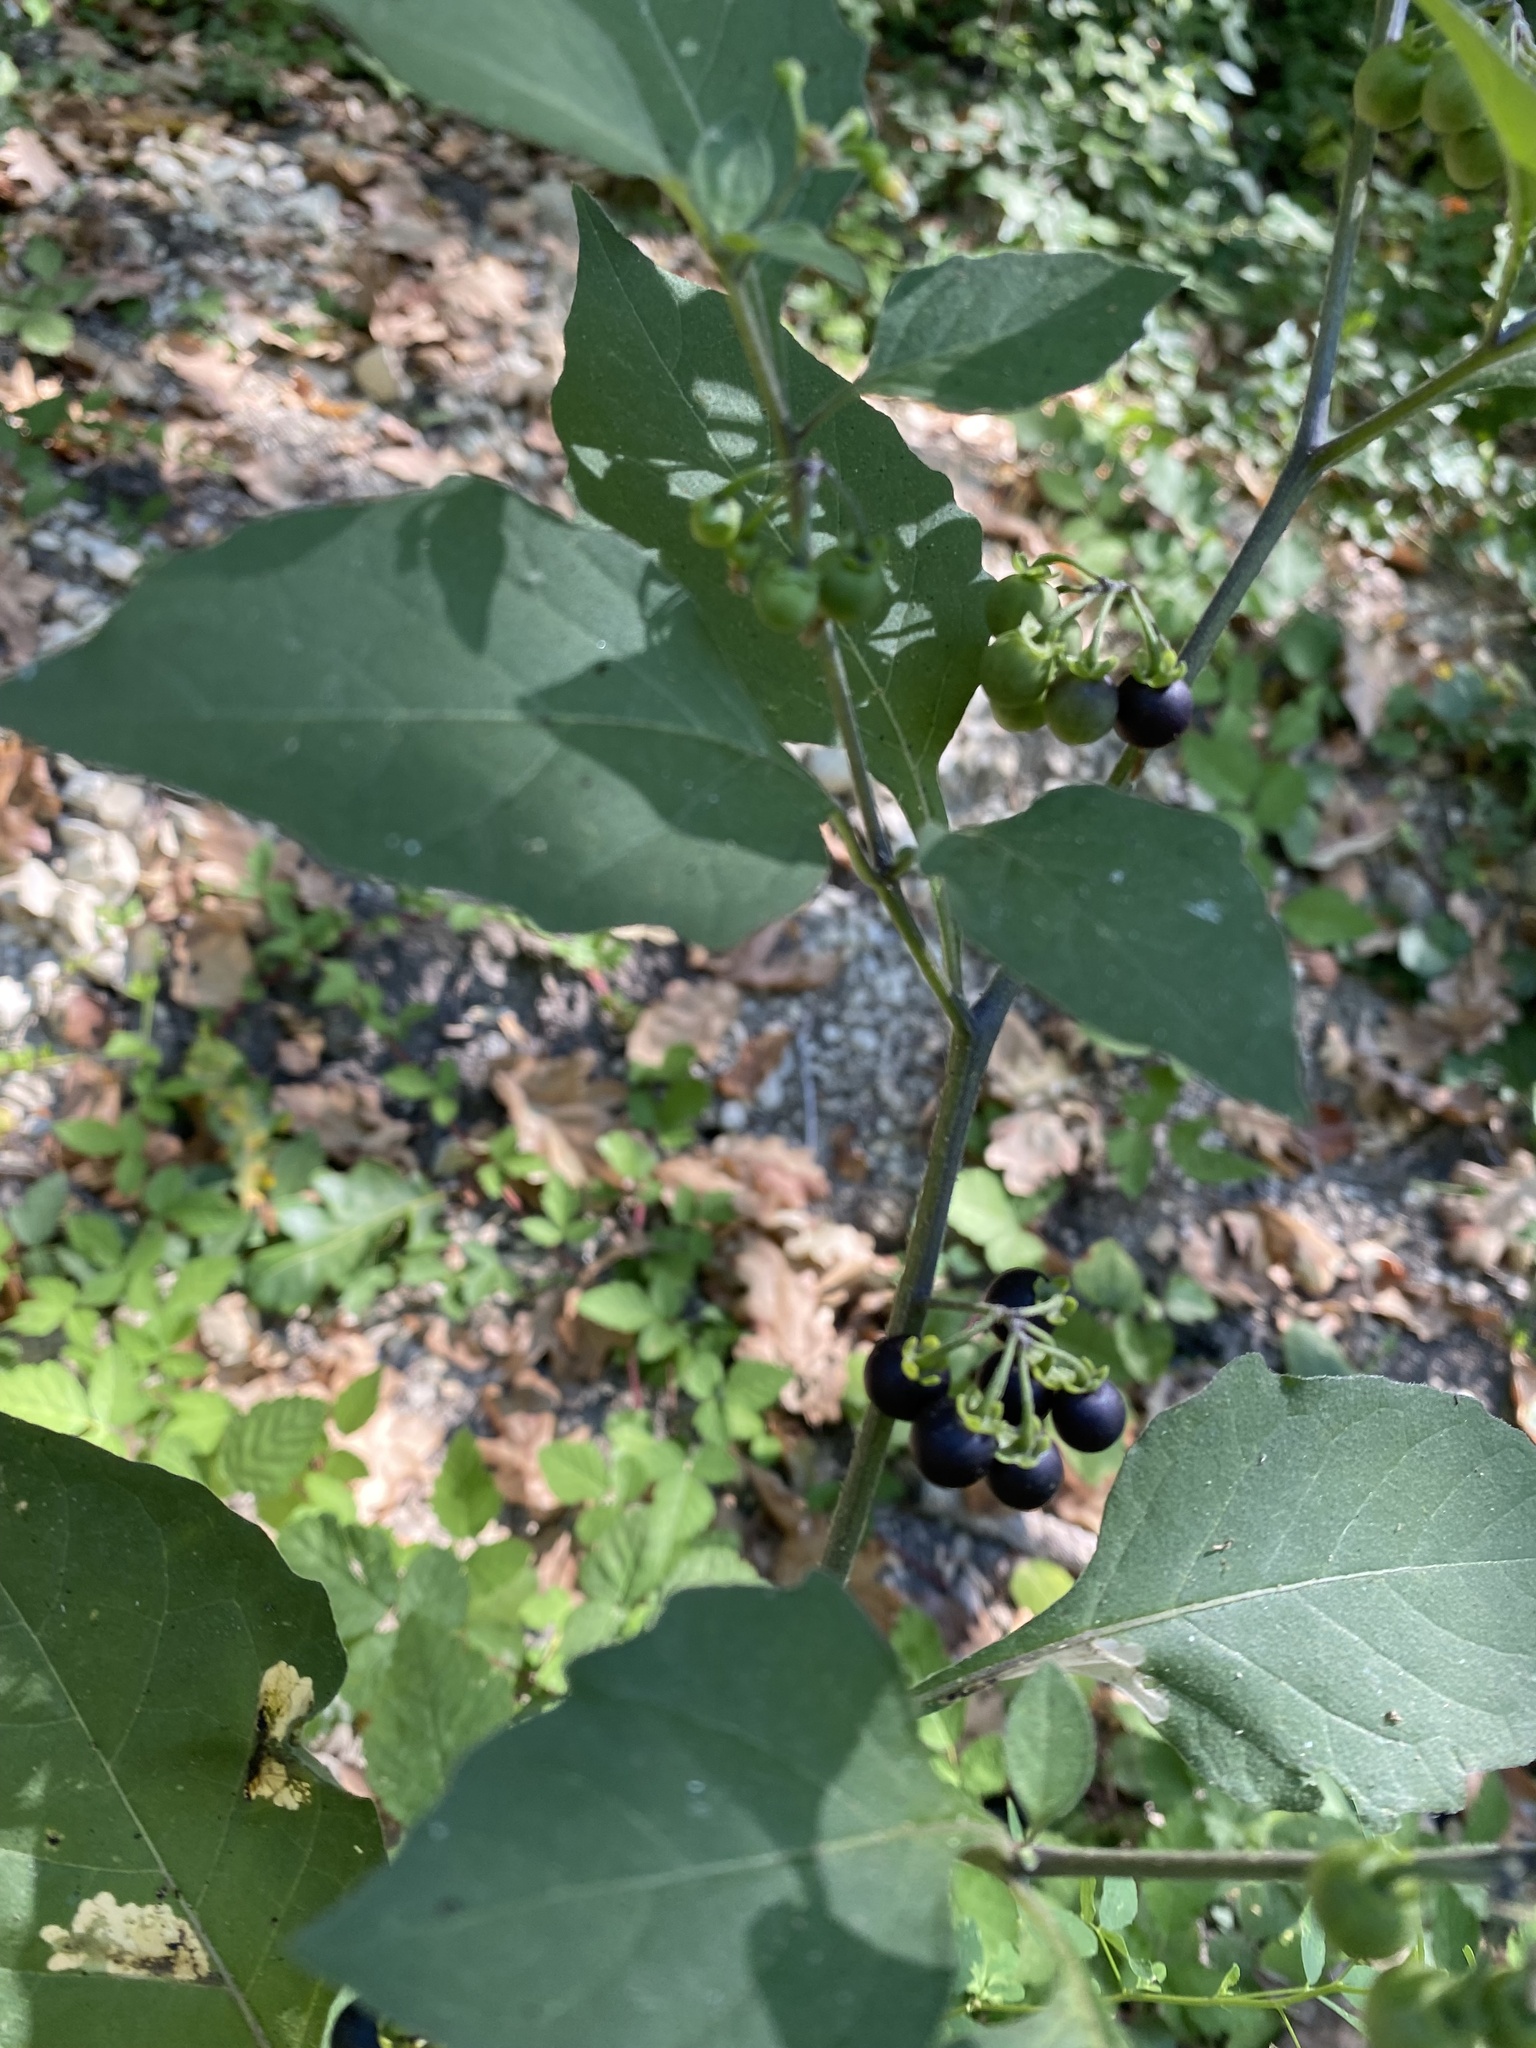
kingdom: Plantae
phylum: Tracheophyta
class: Magnoliopsida
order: Solanales
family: Solanaceae
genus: Solanum
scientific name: Solanum nigrum
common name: Black nightshade
